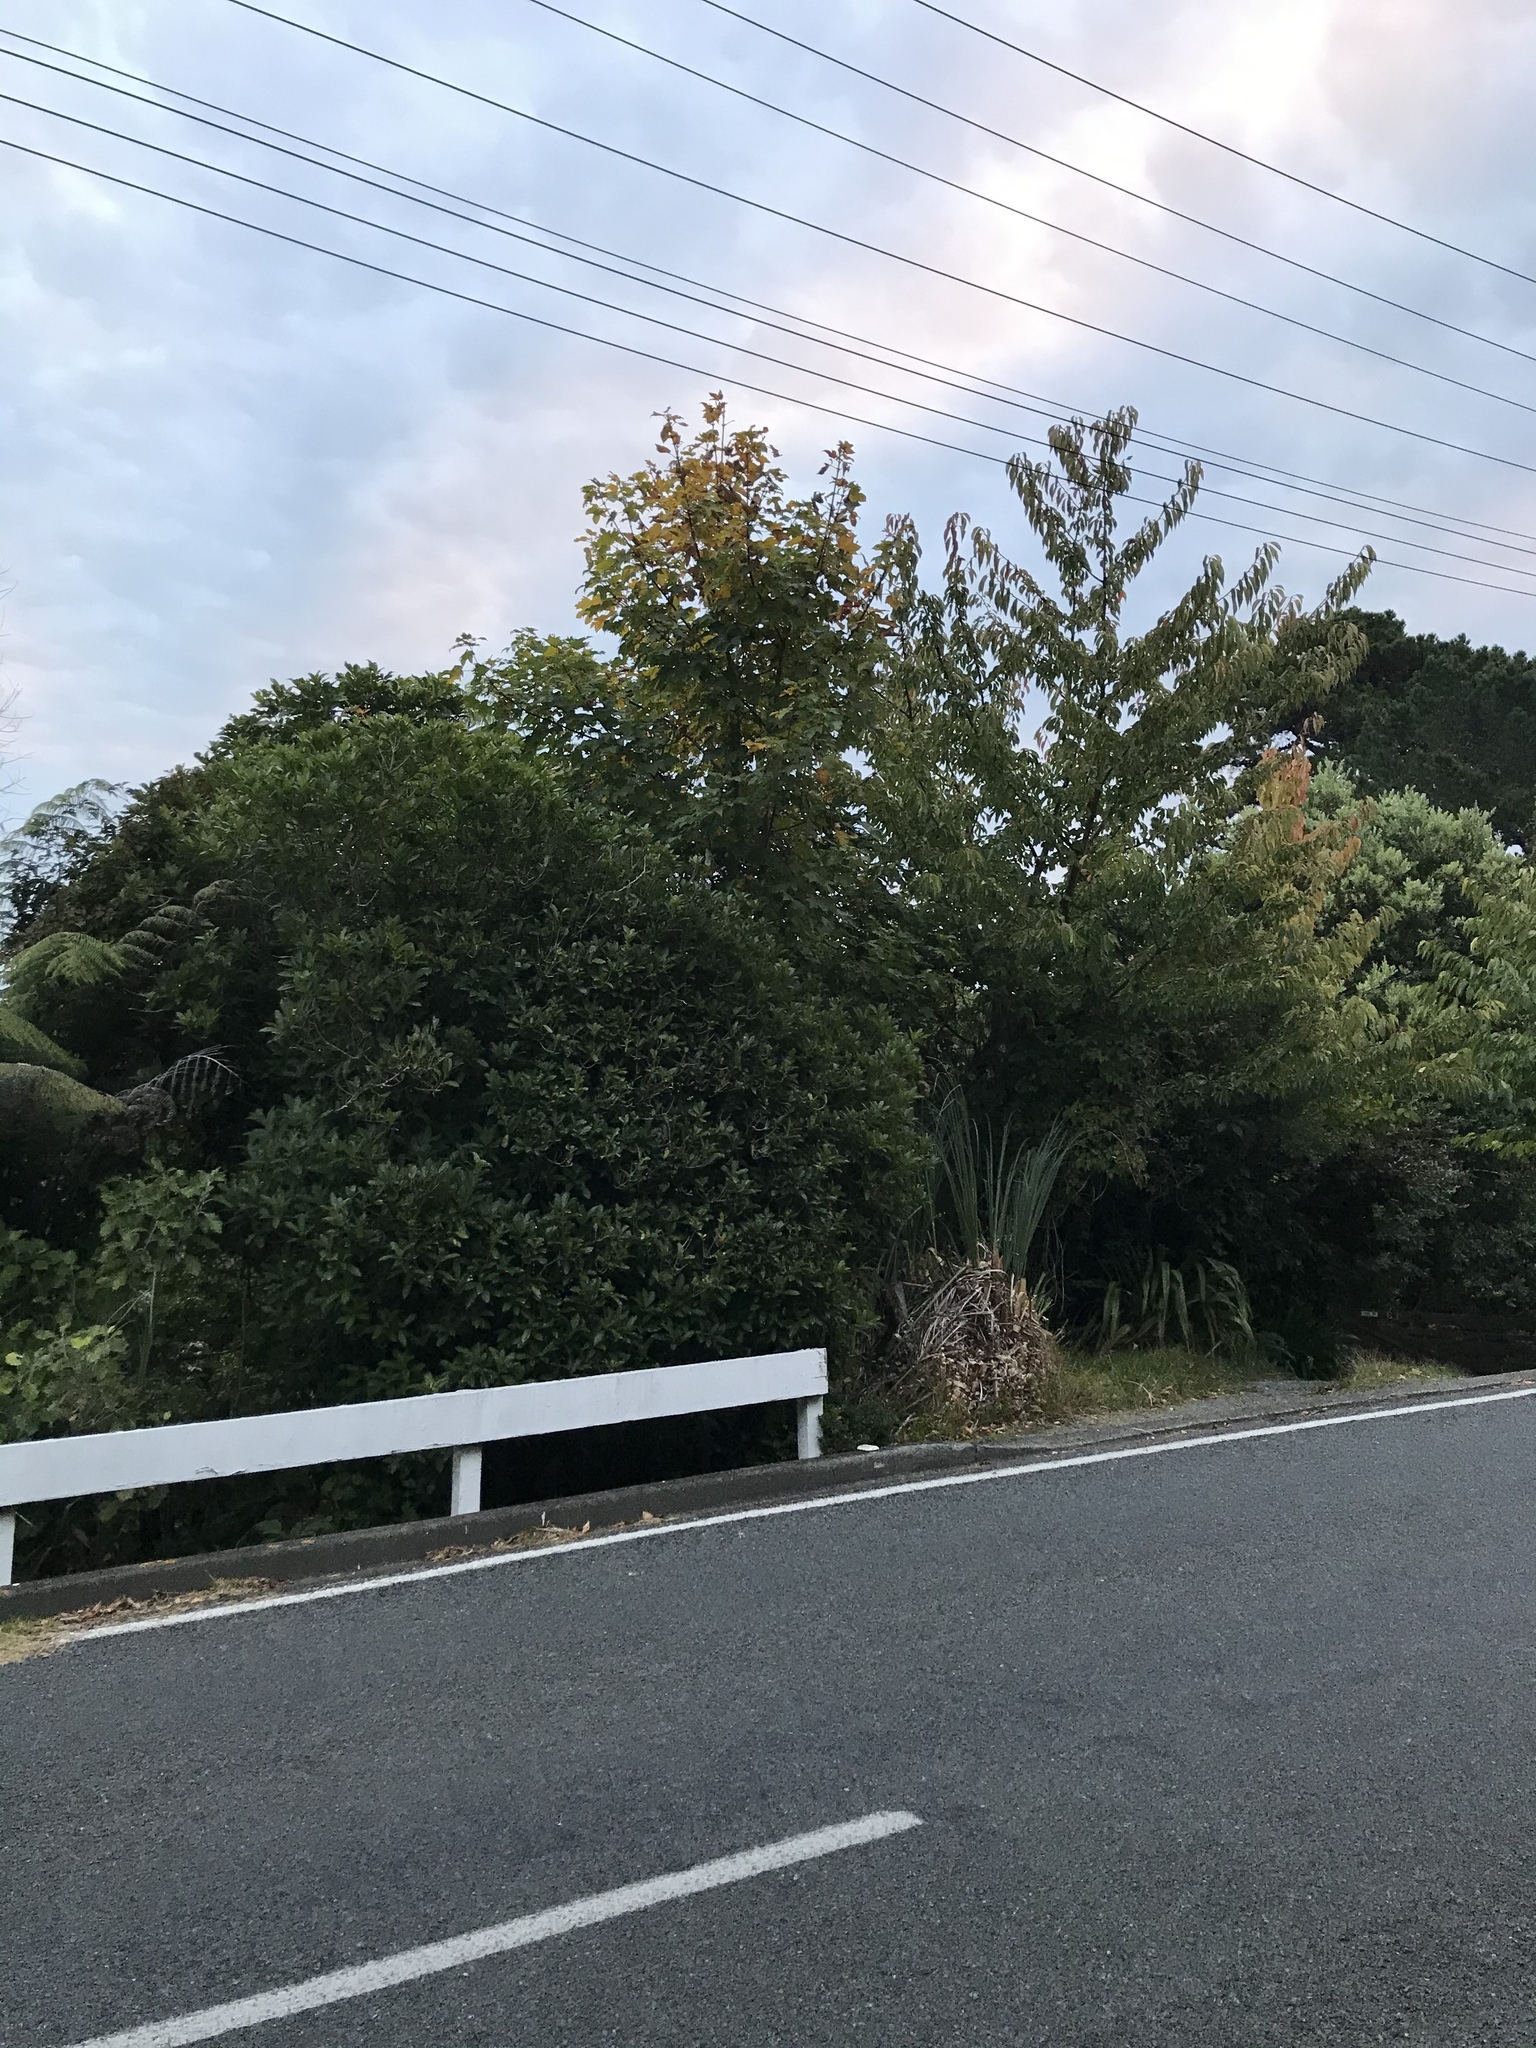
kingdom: Plantae
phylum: Tracheophyta
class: Magnoliopsida
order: Sapindales
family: Sapindaceae
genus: Acer
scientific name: Acer pseudoplatanus
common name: Sycamore
